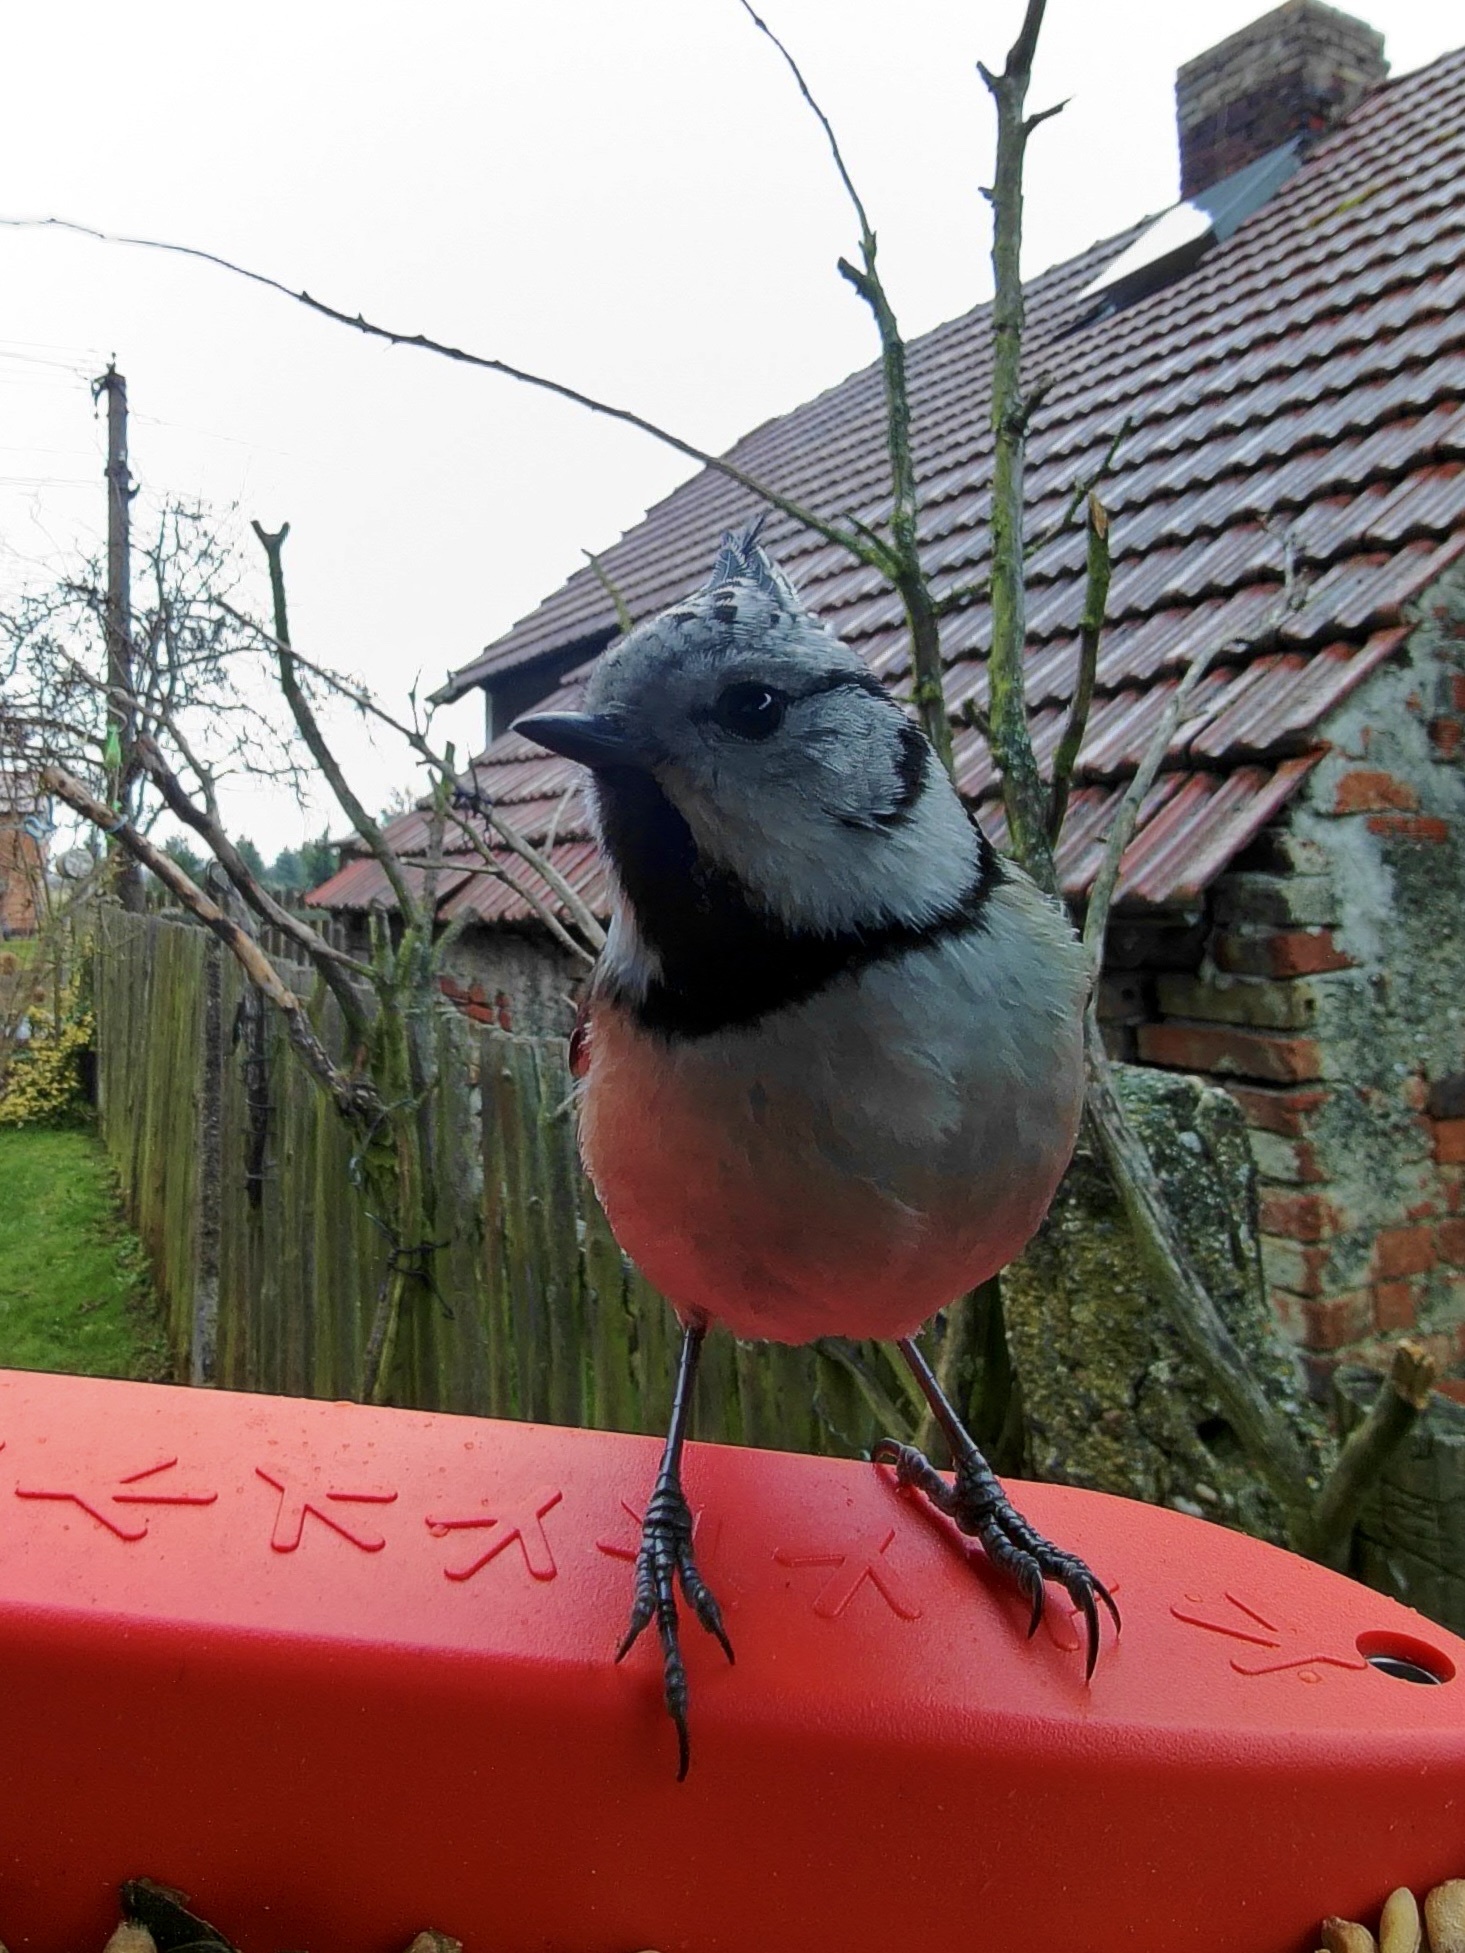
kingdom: Animalia
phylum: Chordata
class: Aves
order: Passeriformes
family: Paridae
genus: Lophophanes
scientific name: Lophophanes cristatus
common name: European crested tit
